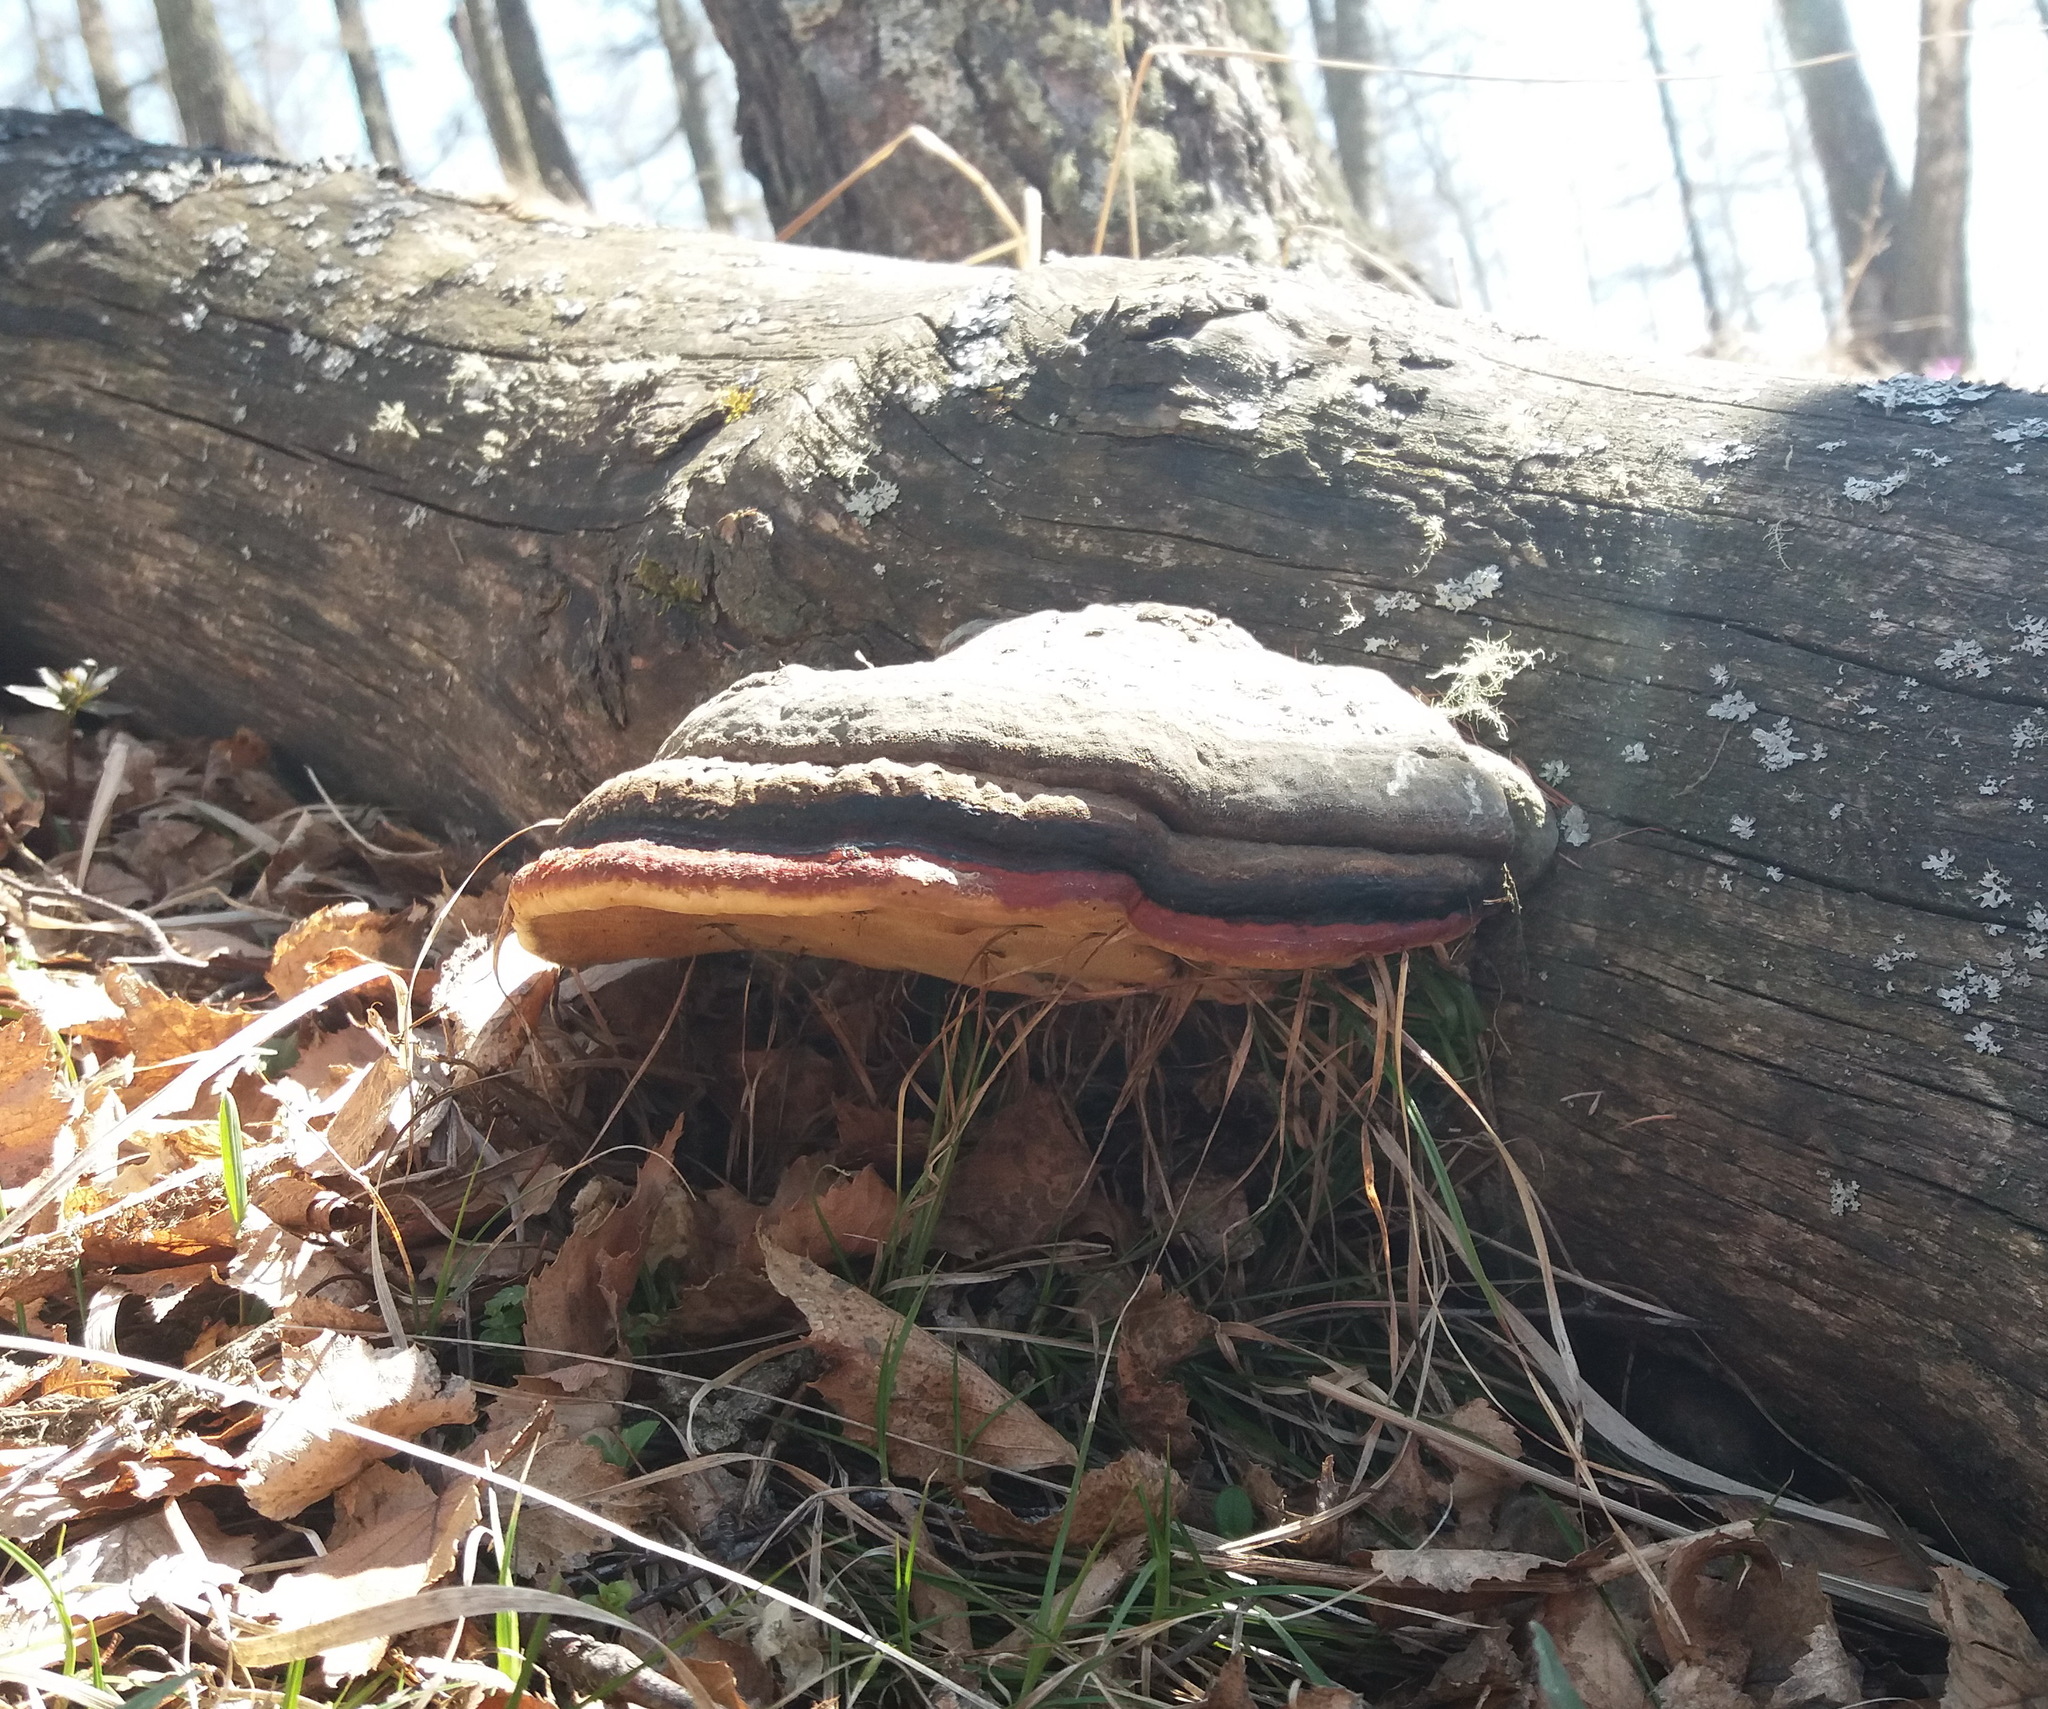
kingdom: Fungi
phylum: Basidiomycota
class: Agaricomycetes
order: Polyporales
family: Fomitopsidaceae
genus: Fomitopsis
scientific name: Fomitopsis pinicola
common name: Red-belted bracket
